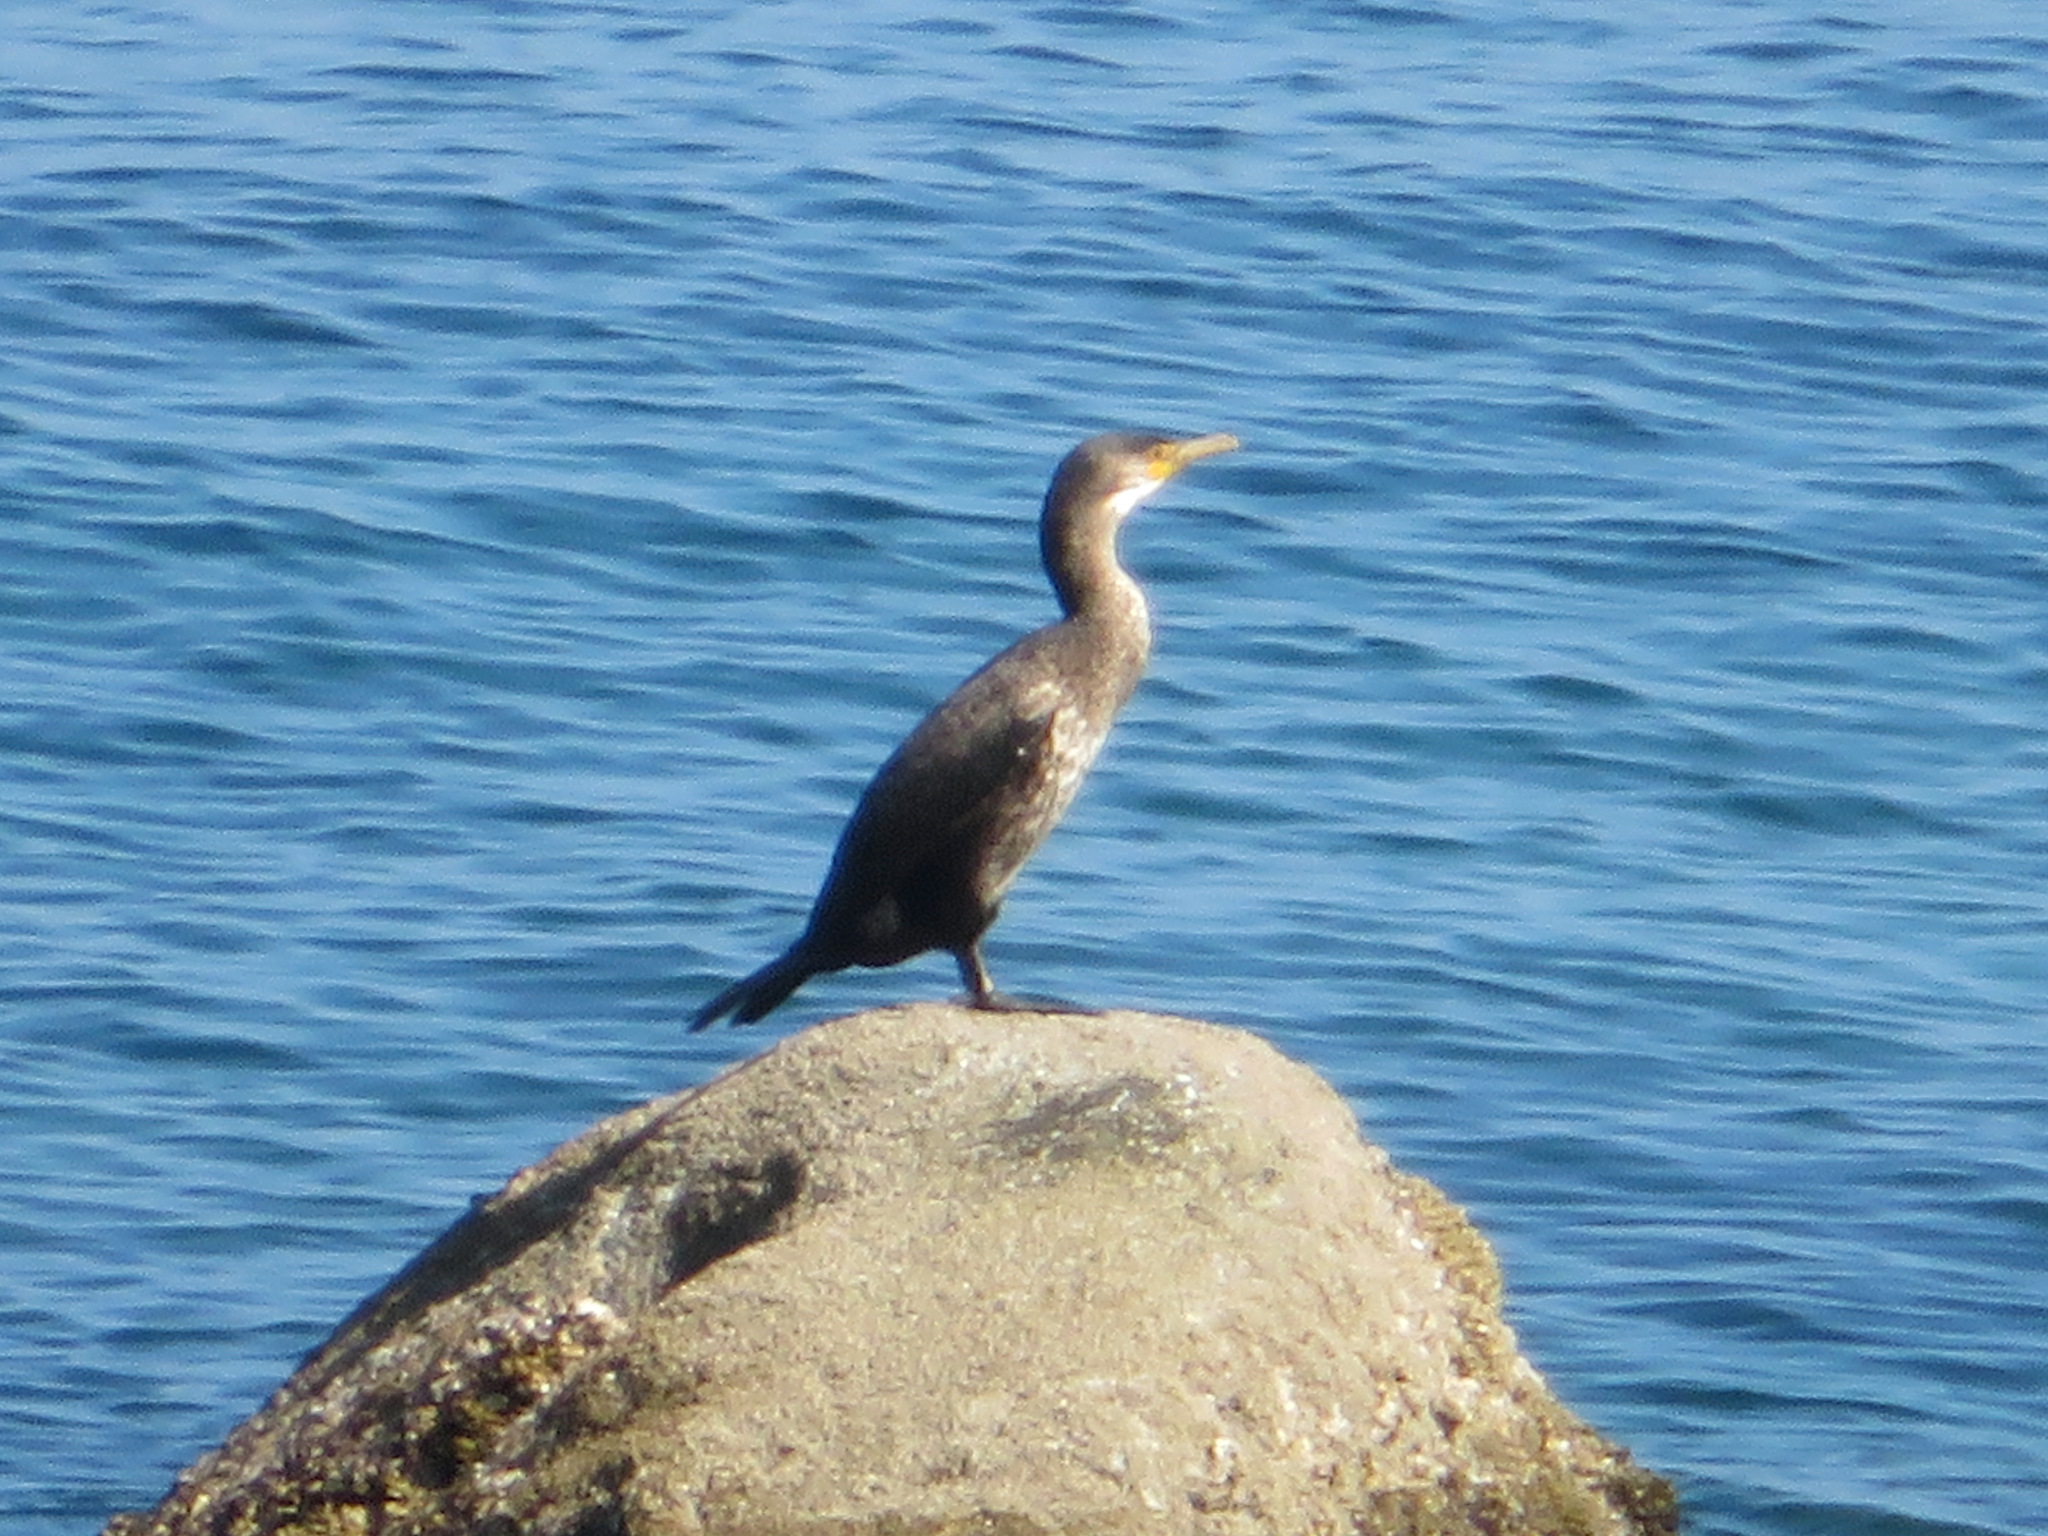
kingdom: Animalia
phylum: Chordata
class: Aves
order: Suliformes
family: Phalacrocoracidae
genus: Phalacrocorax
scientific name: Phalacrocorax capillatus
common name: Japanese cormorant
